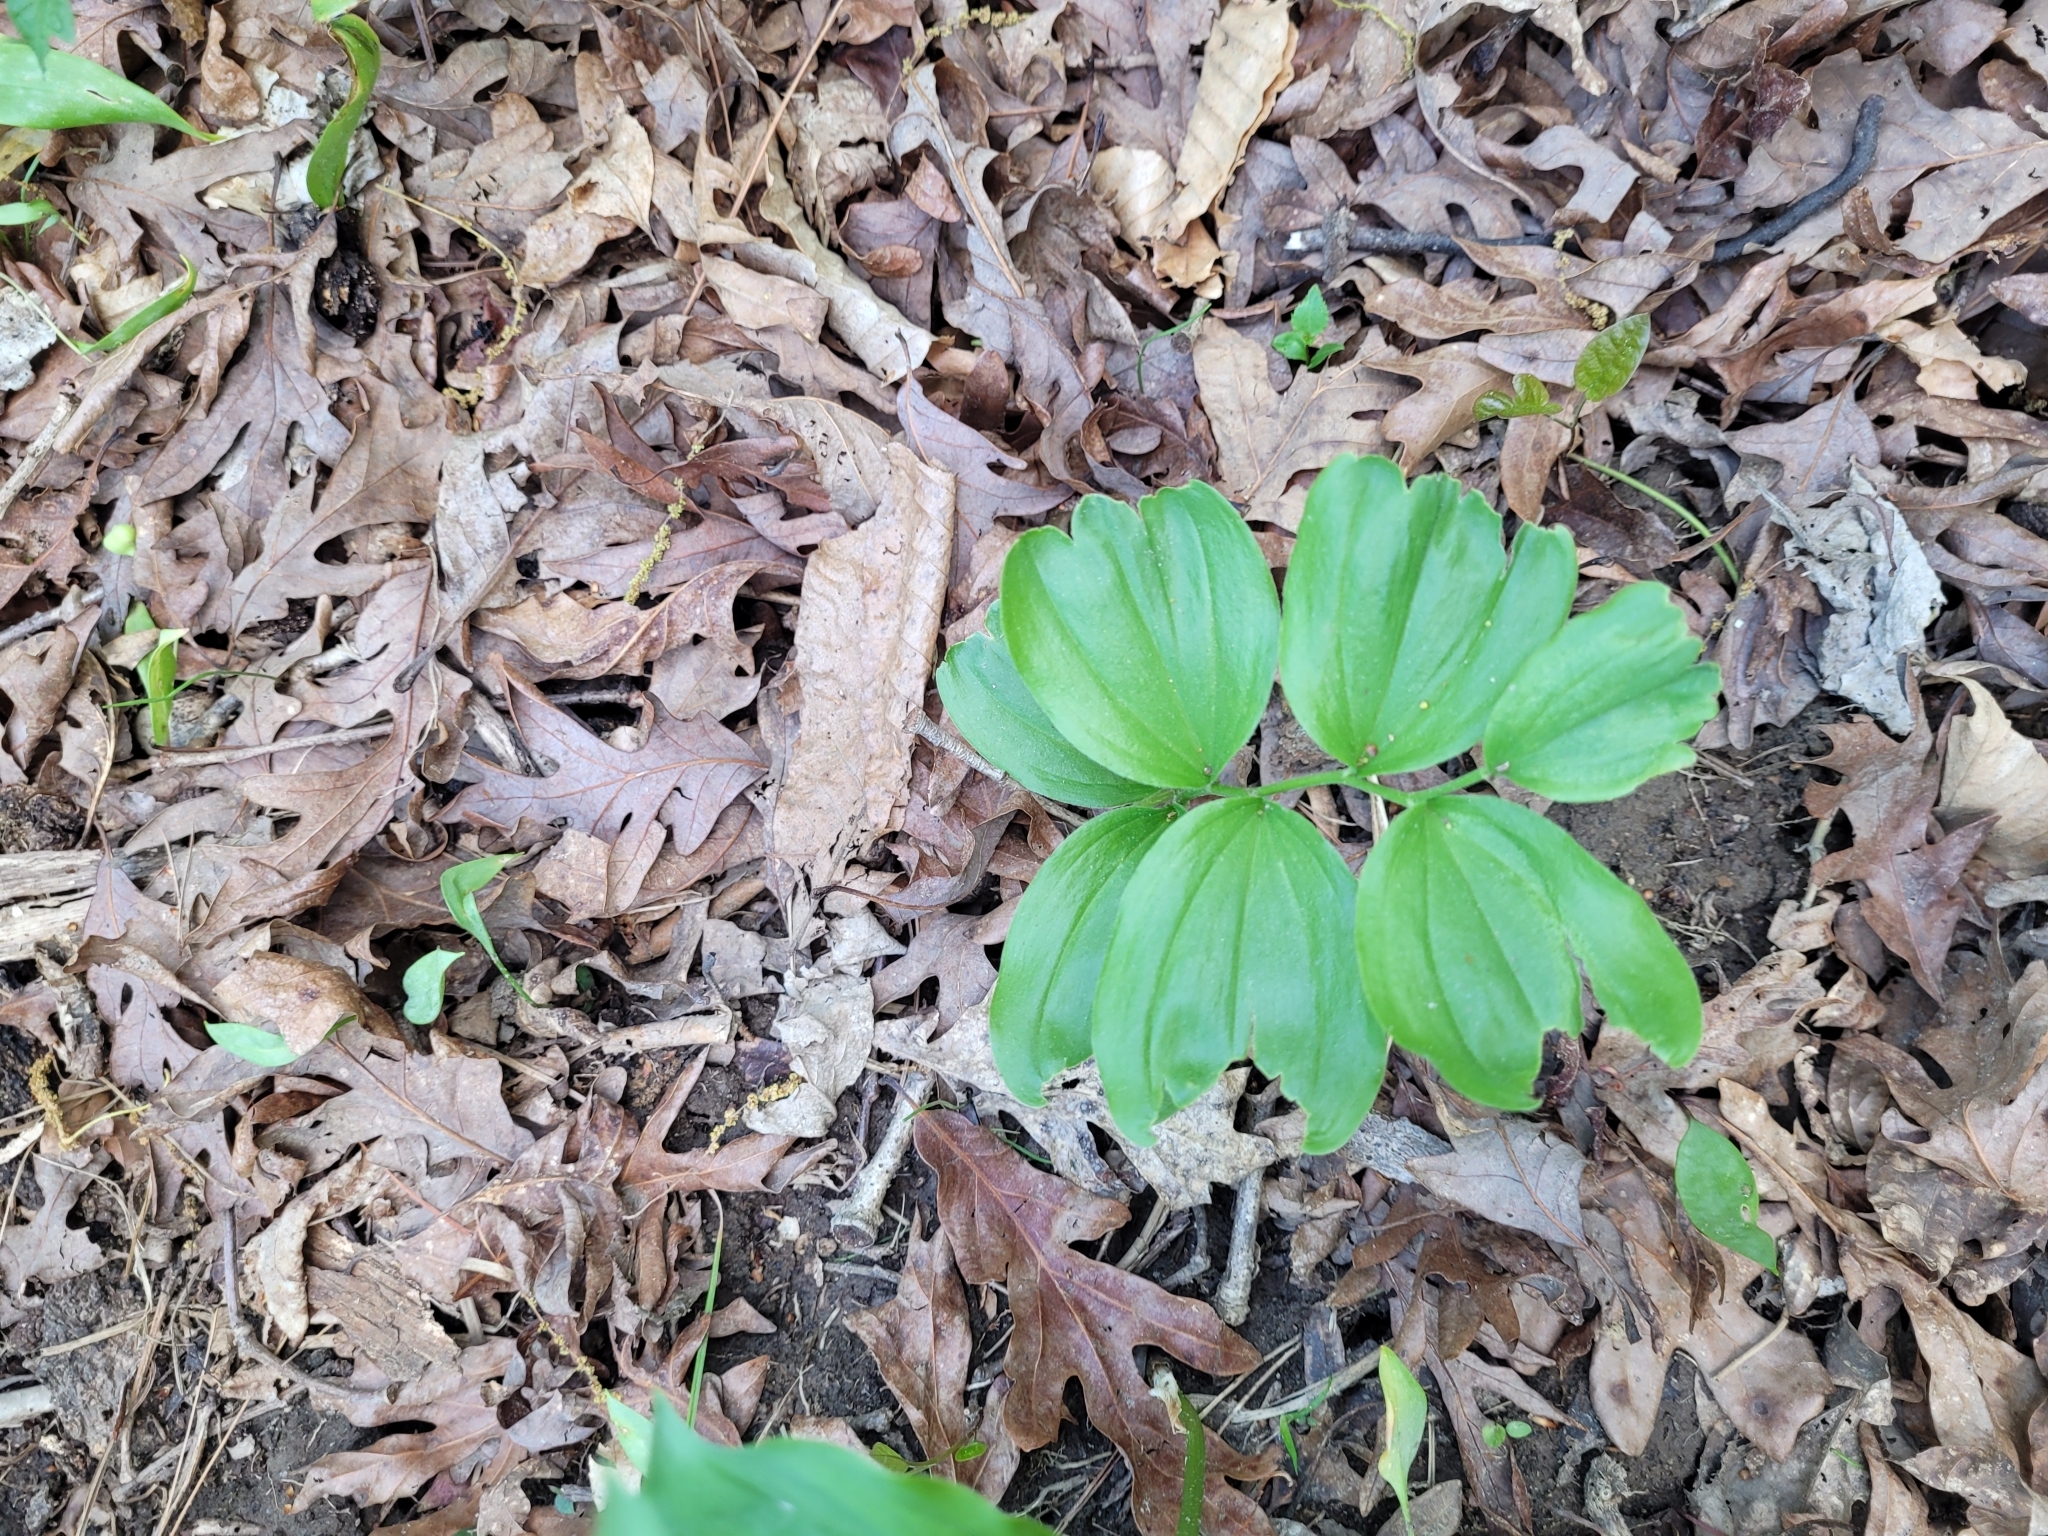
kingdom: Plantae
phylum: Tracheophyta
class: Liliopsida
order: Asparagales
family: Asparagaceae
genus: Maianthemum
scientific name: Maianthemum racemosum
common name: False spikenard
